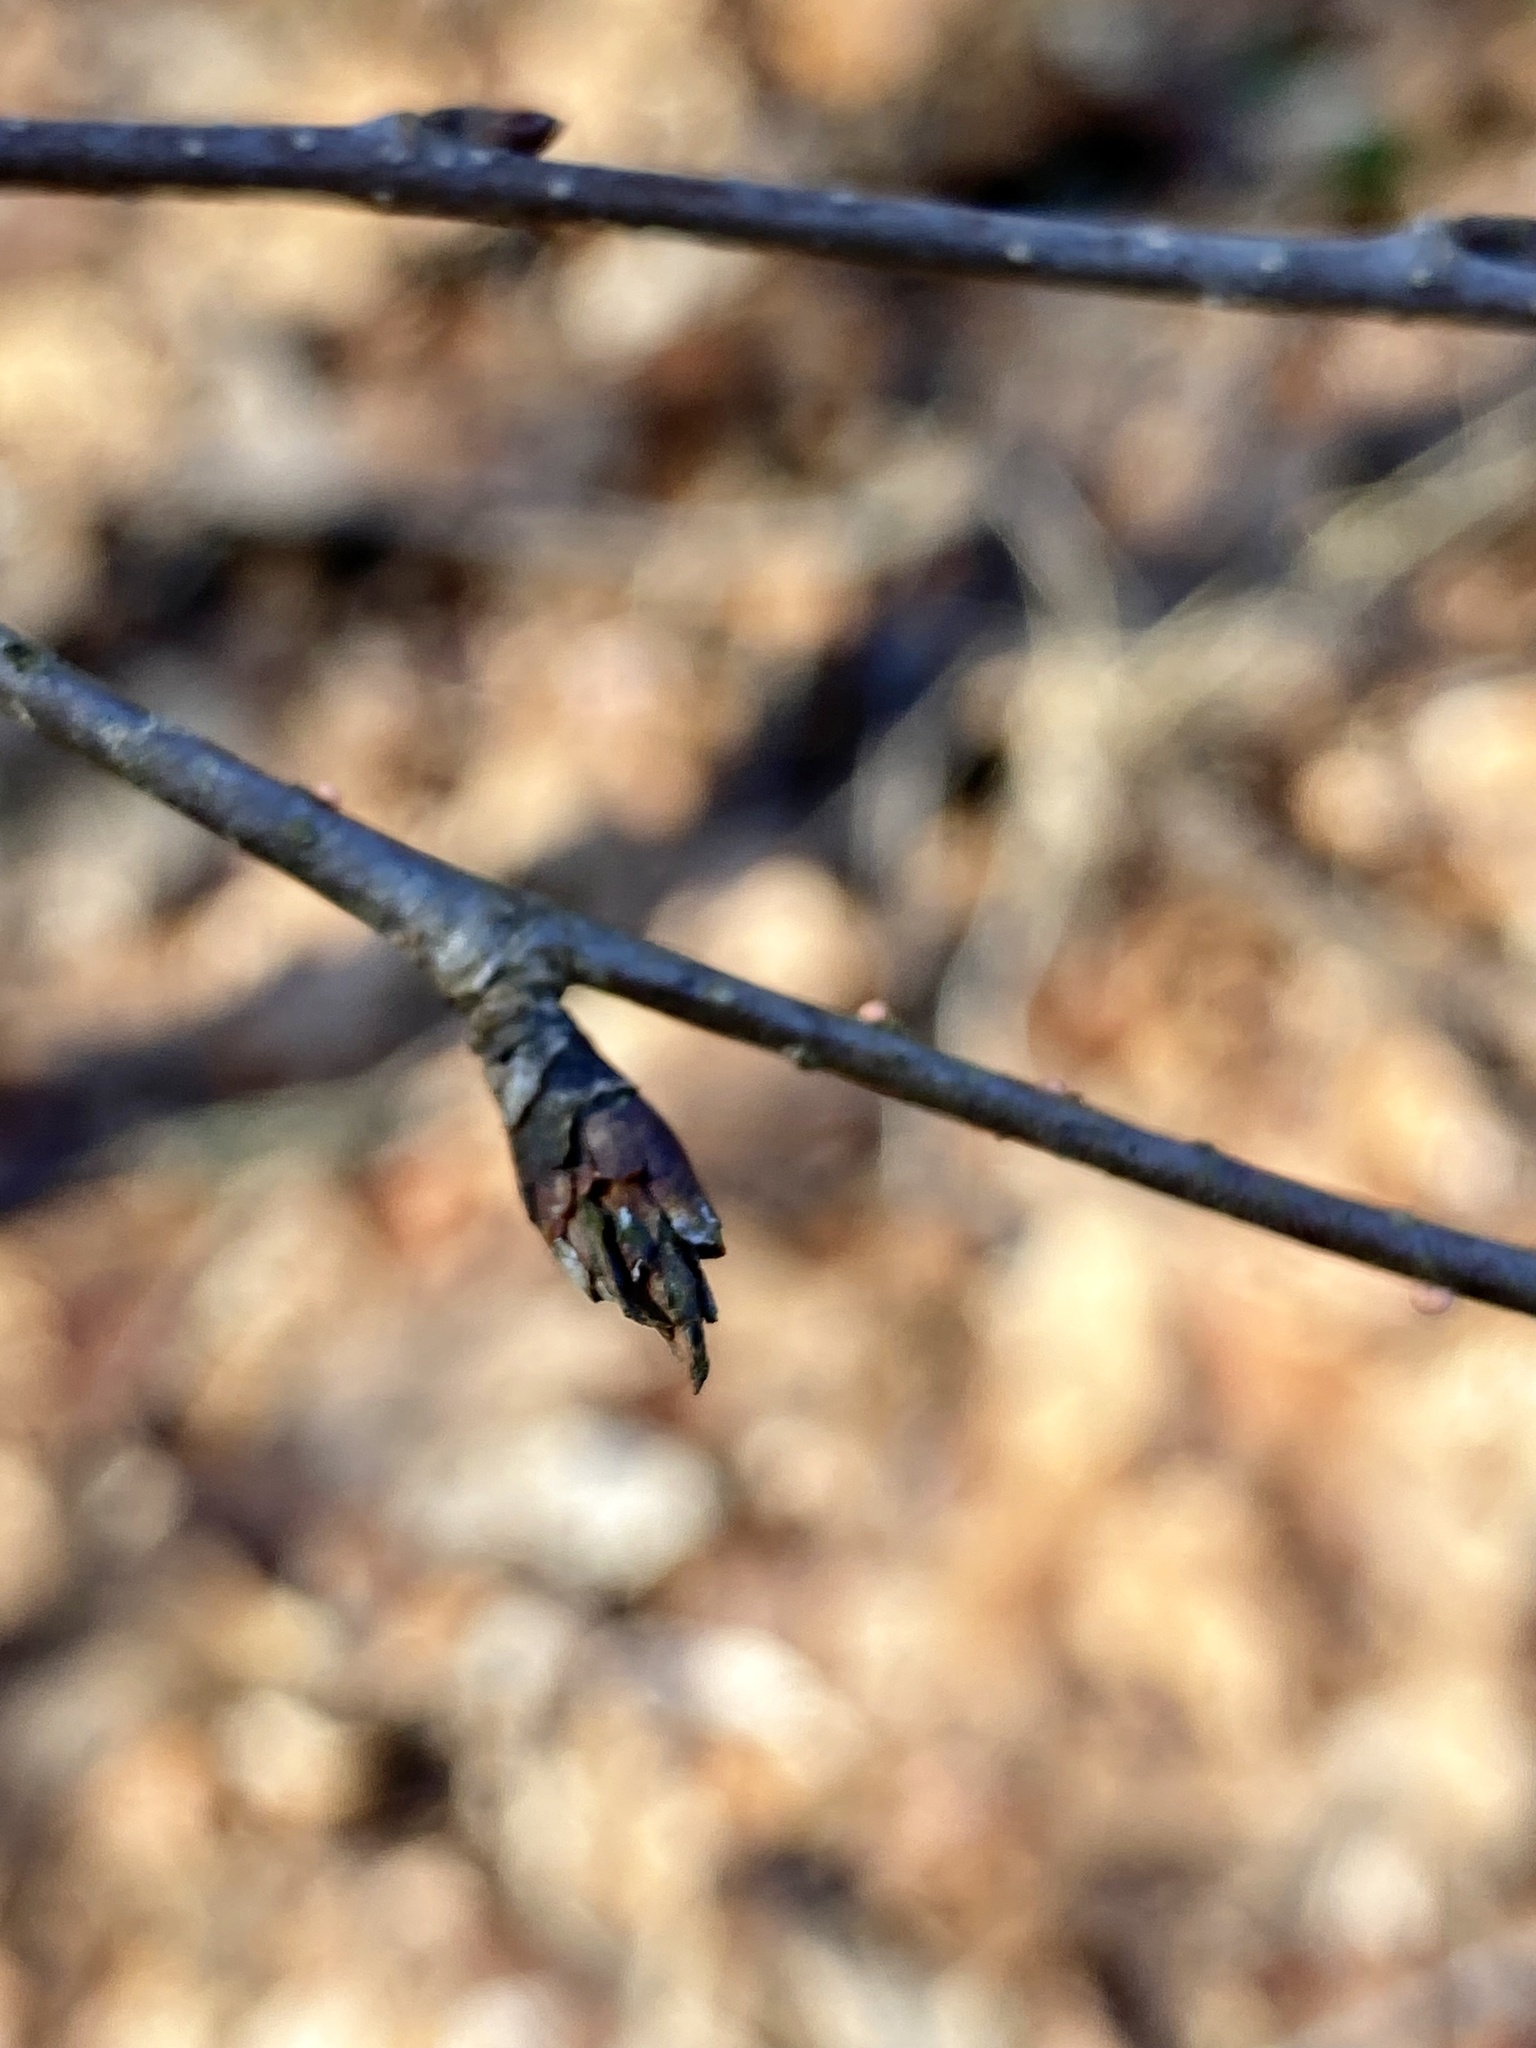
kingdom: Plantae
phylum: Tracheophyta
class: Magnoliopsida
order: Fagales
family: Betulaceae
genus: Betula
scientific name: Betula alleghaniensis
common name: Yellow birch
